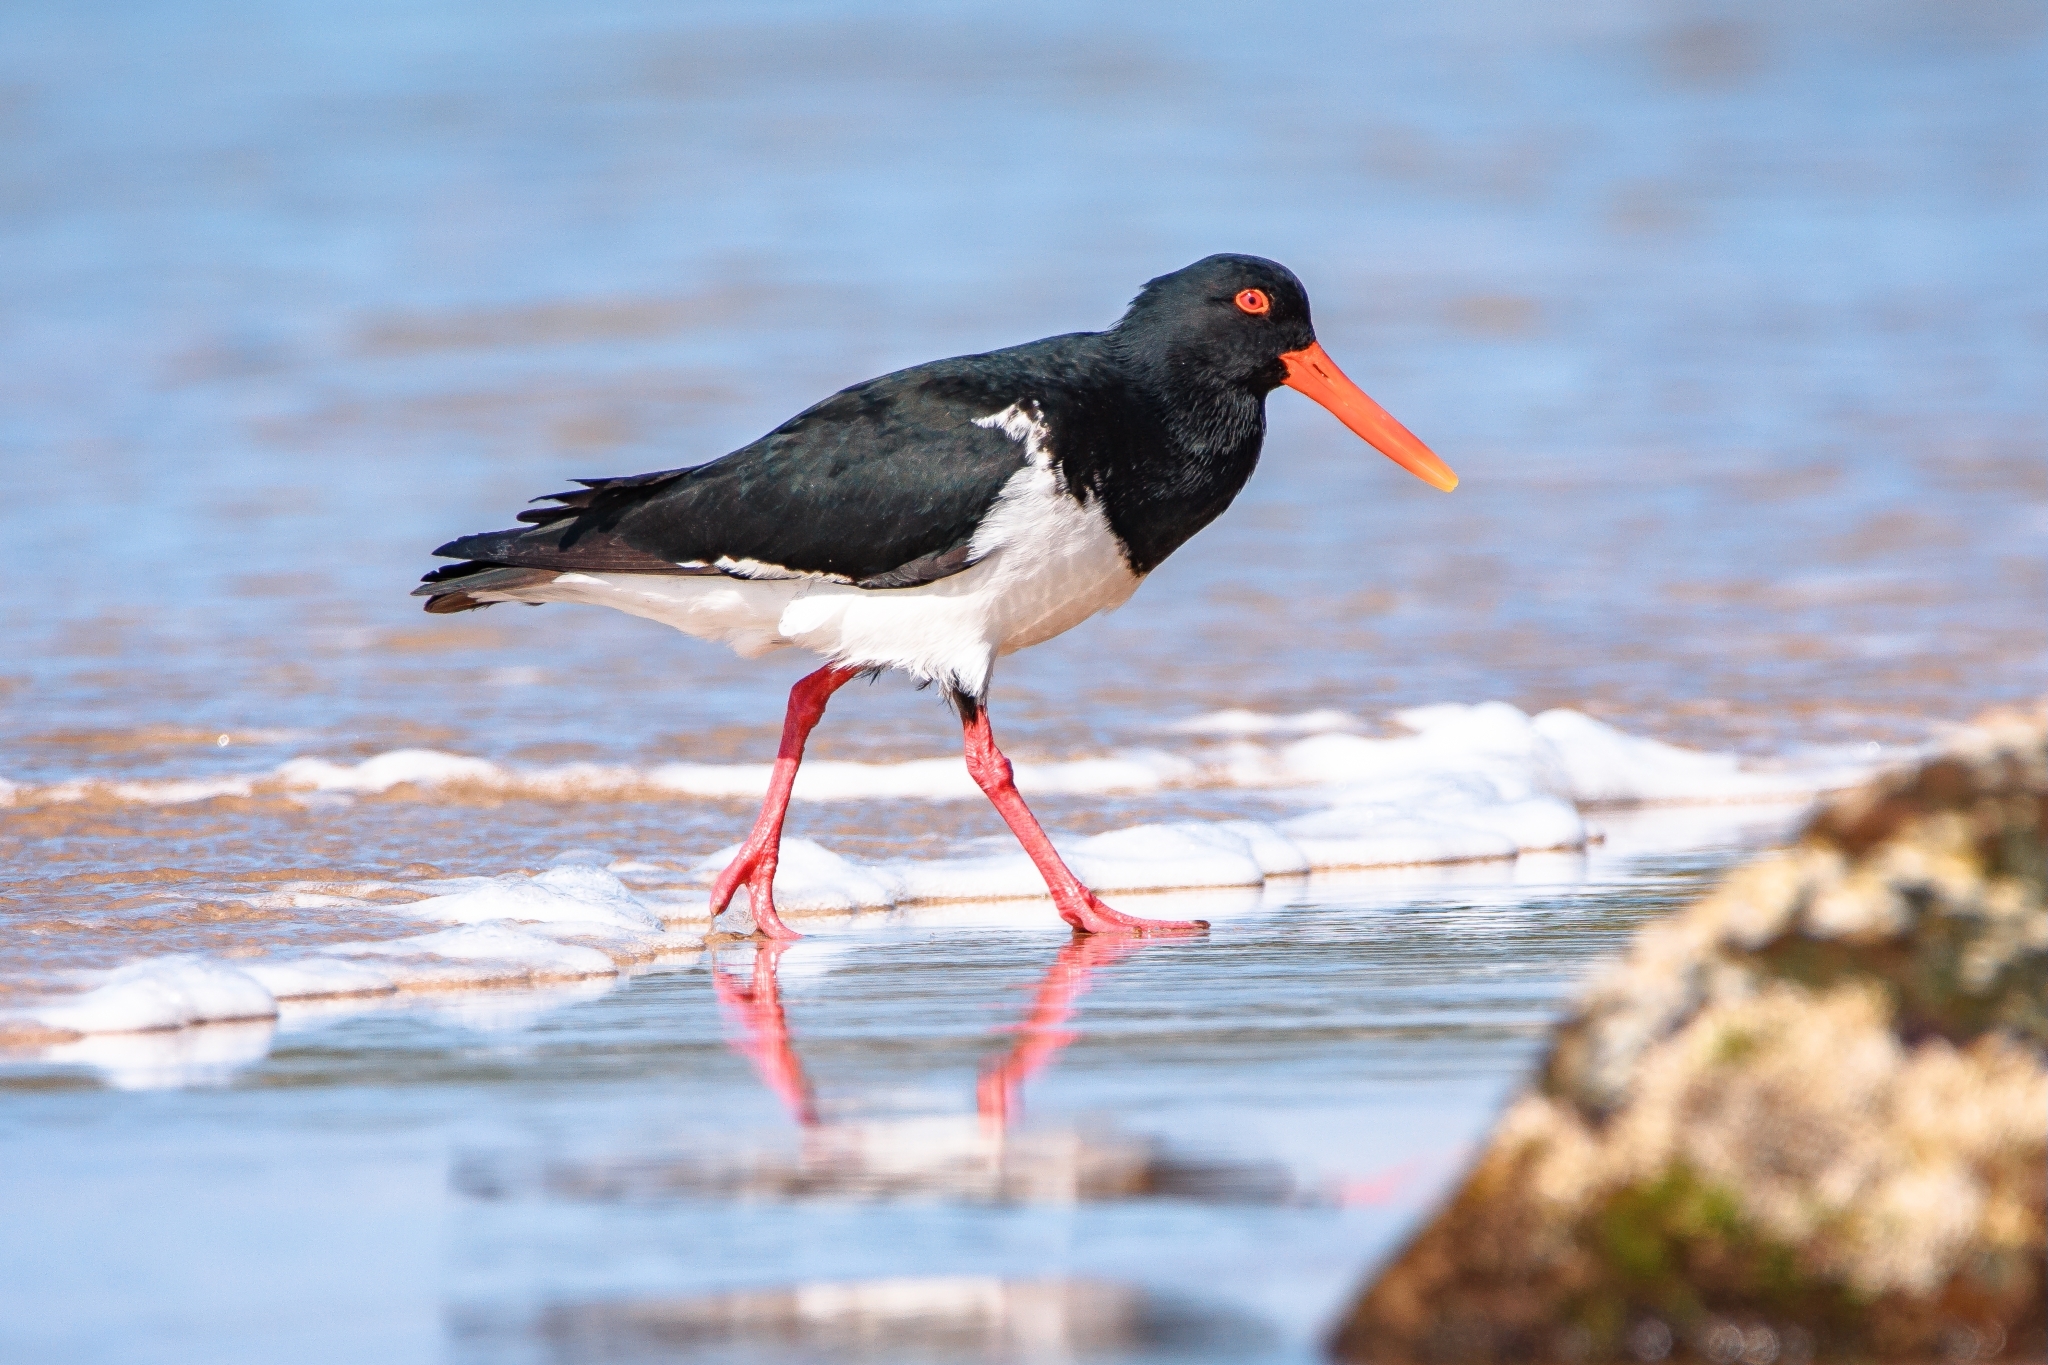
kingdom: Animalia
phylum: Chordata
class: Aves
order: Charadriiformes
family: Haematopodidae
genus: Haematopus
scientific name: Haematopus longirostris
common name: Pied oystercatcher
